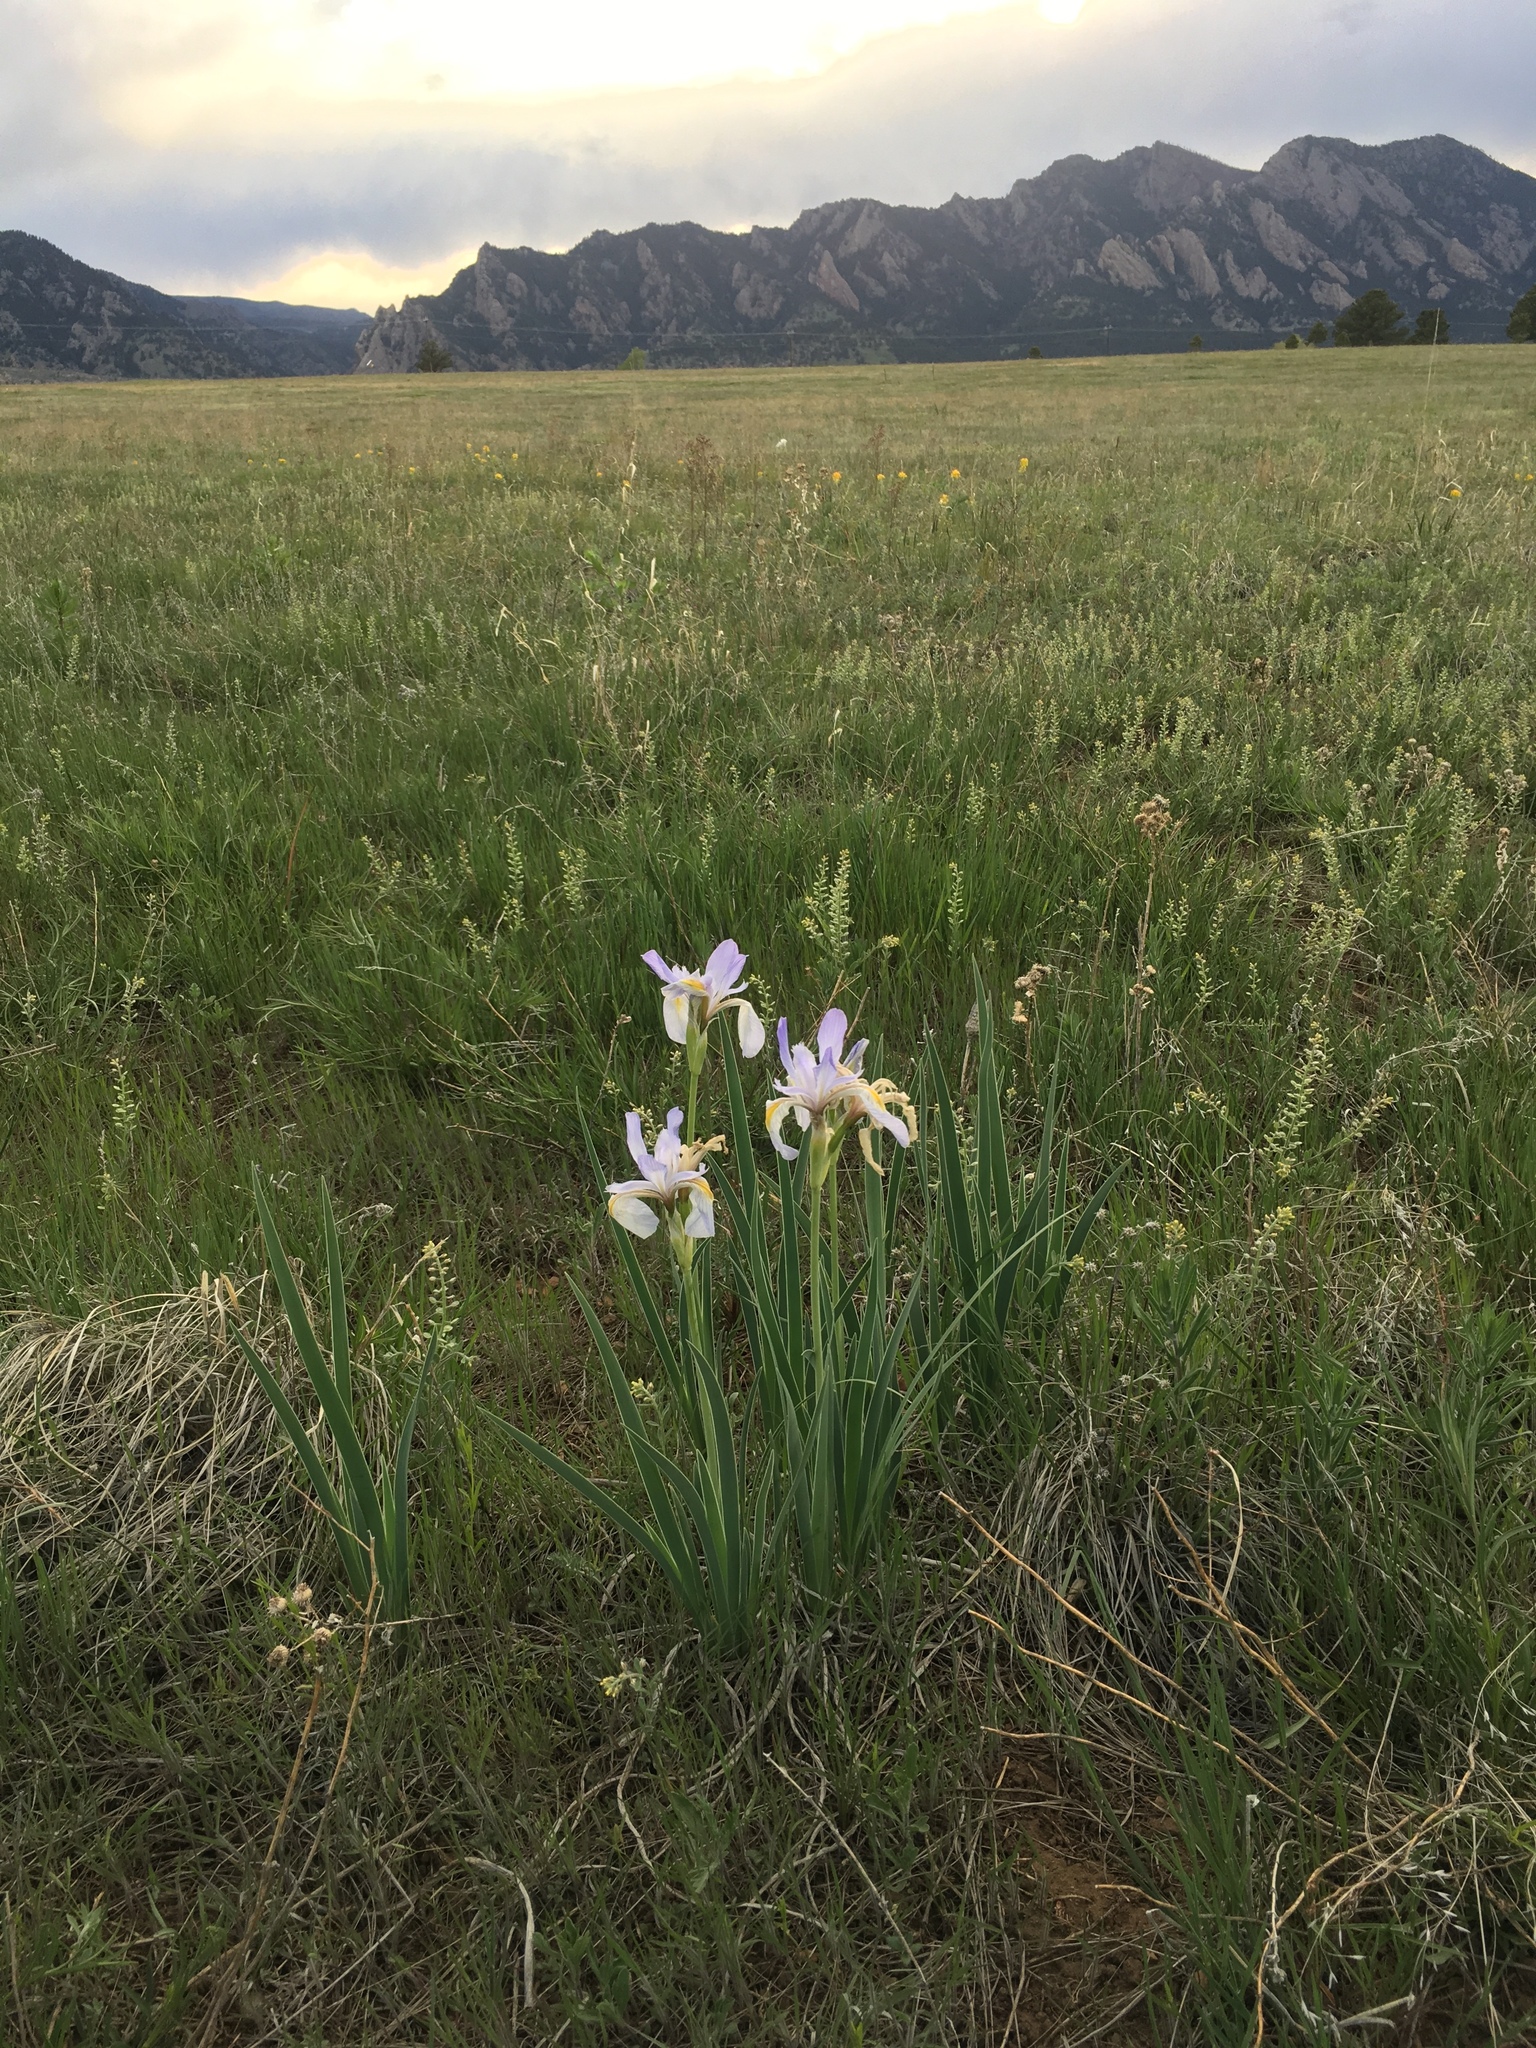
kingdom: Plantae
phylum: Tracheophyta
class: Liliopsida
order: Asparagales
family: Iridaceae
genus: Iris
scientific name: Iris missouriensis
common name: Rocky mountain iris
